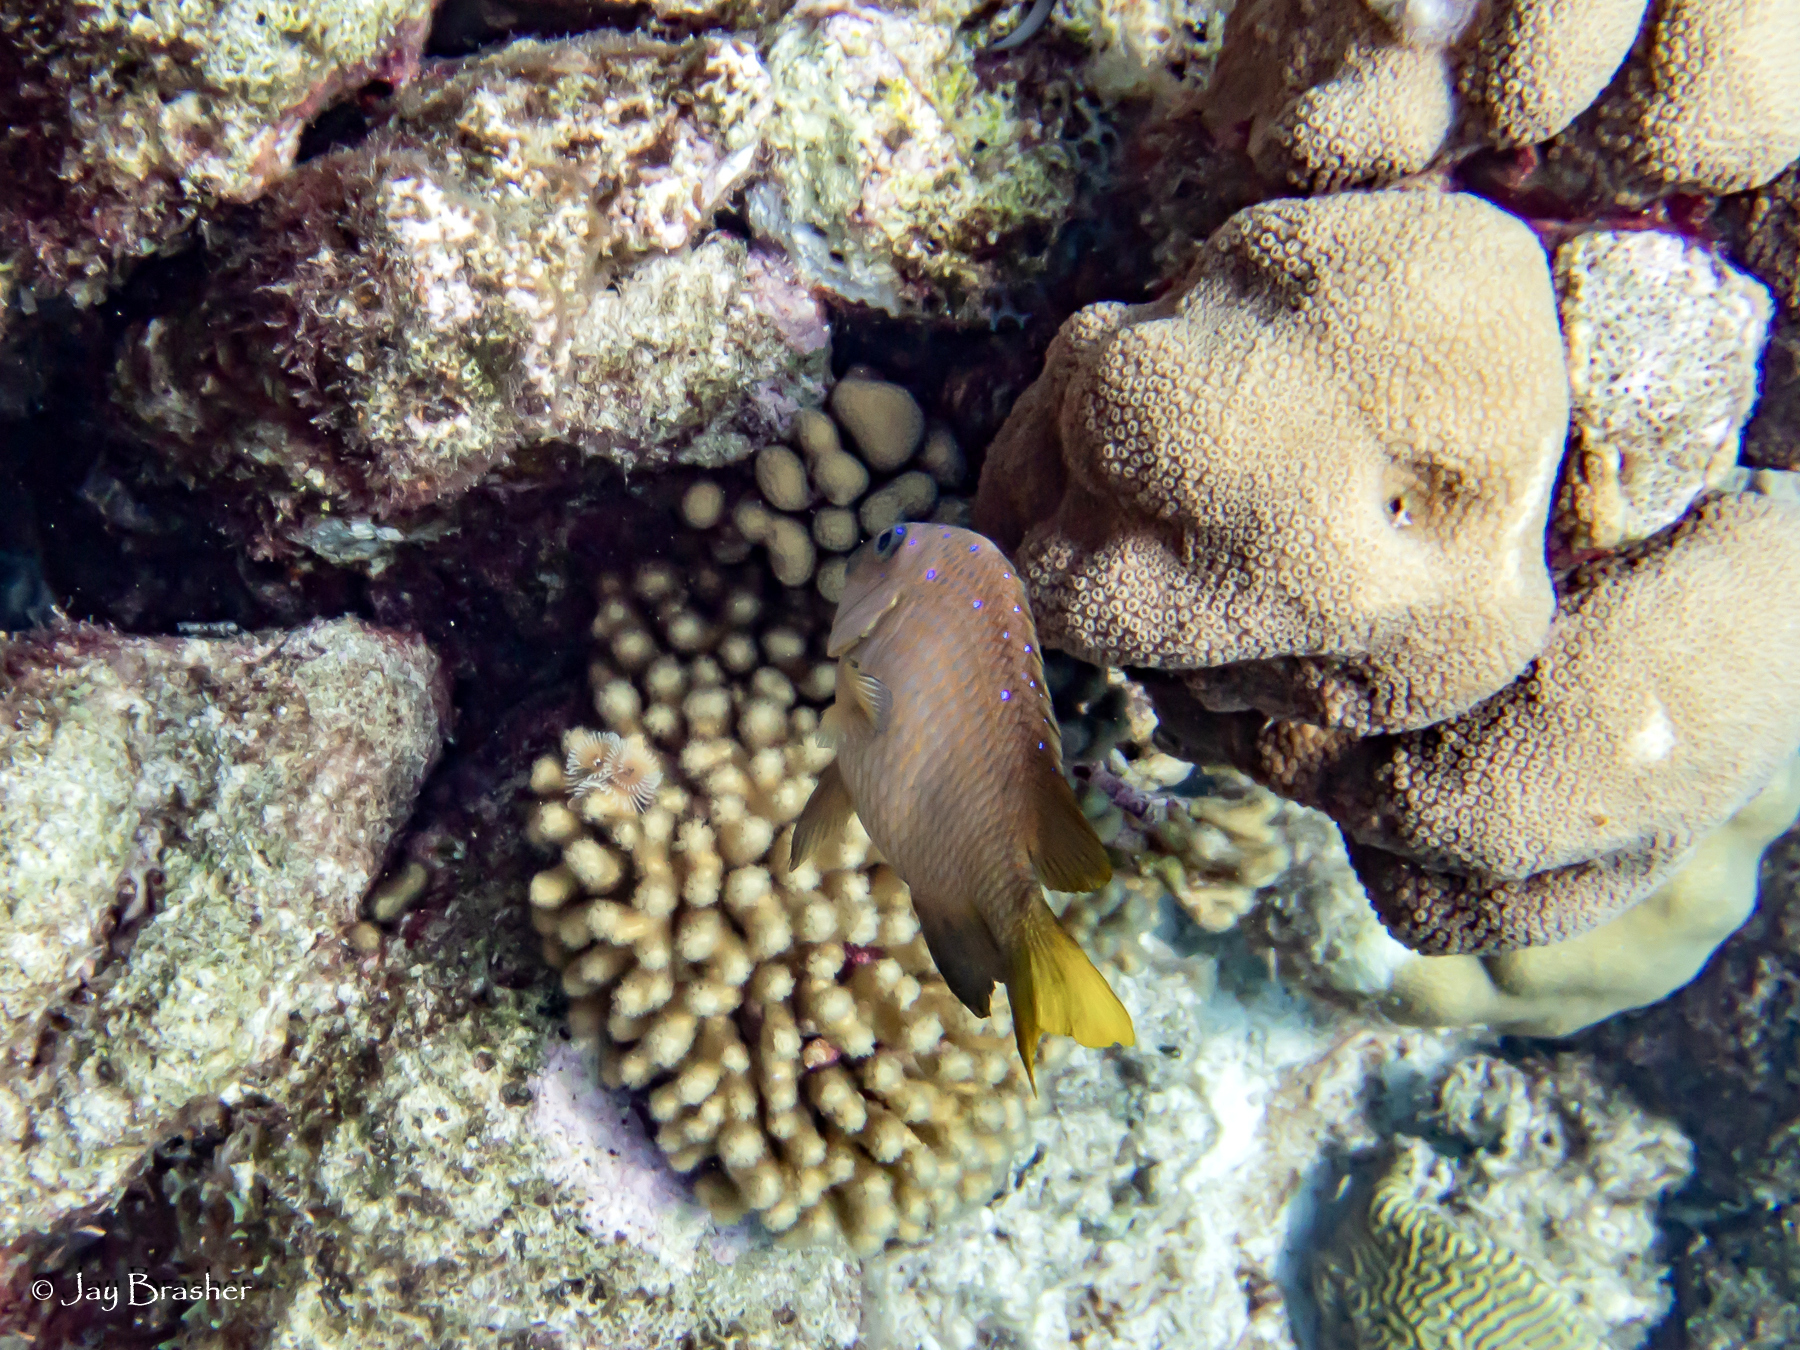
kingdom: Animalia
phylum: Cnidaria
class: Anthozoa
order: Scleractinia
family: Pocilloporidae
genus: Madracis
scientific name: Madracis auretenra
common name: Yellow pencil coral
